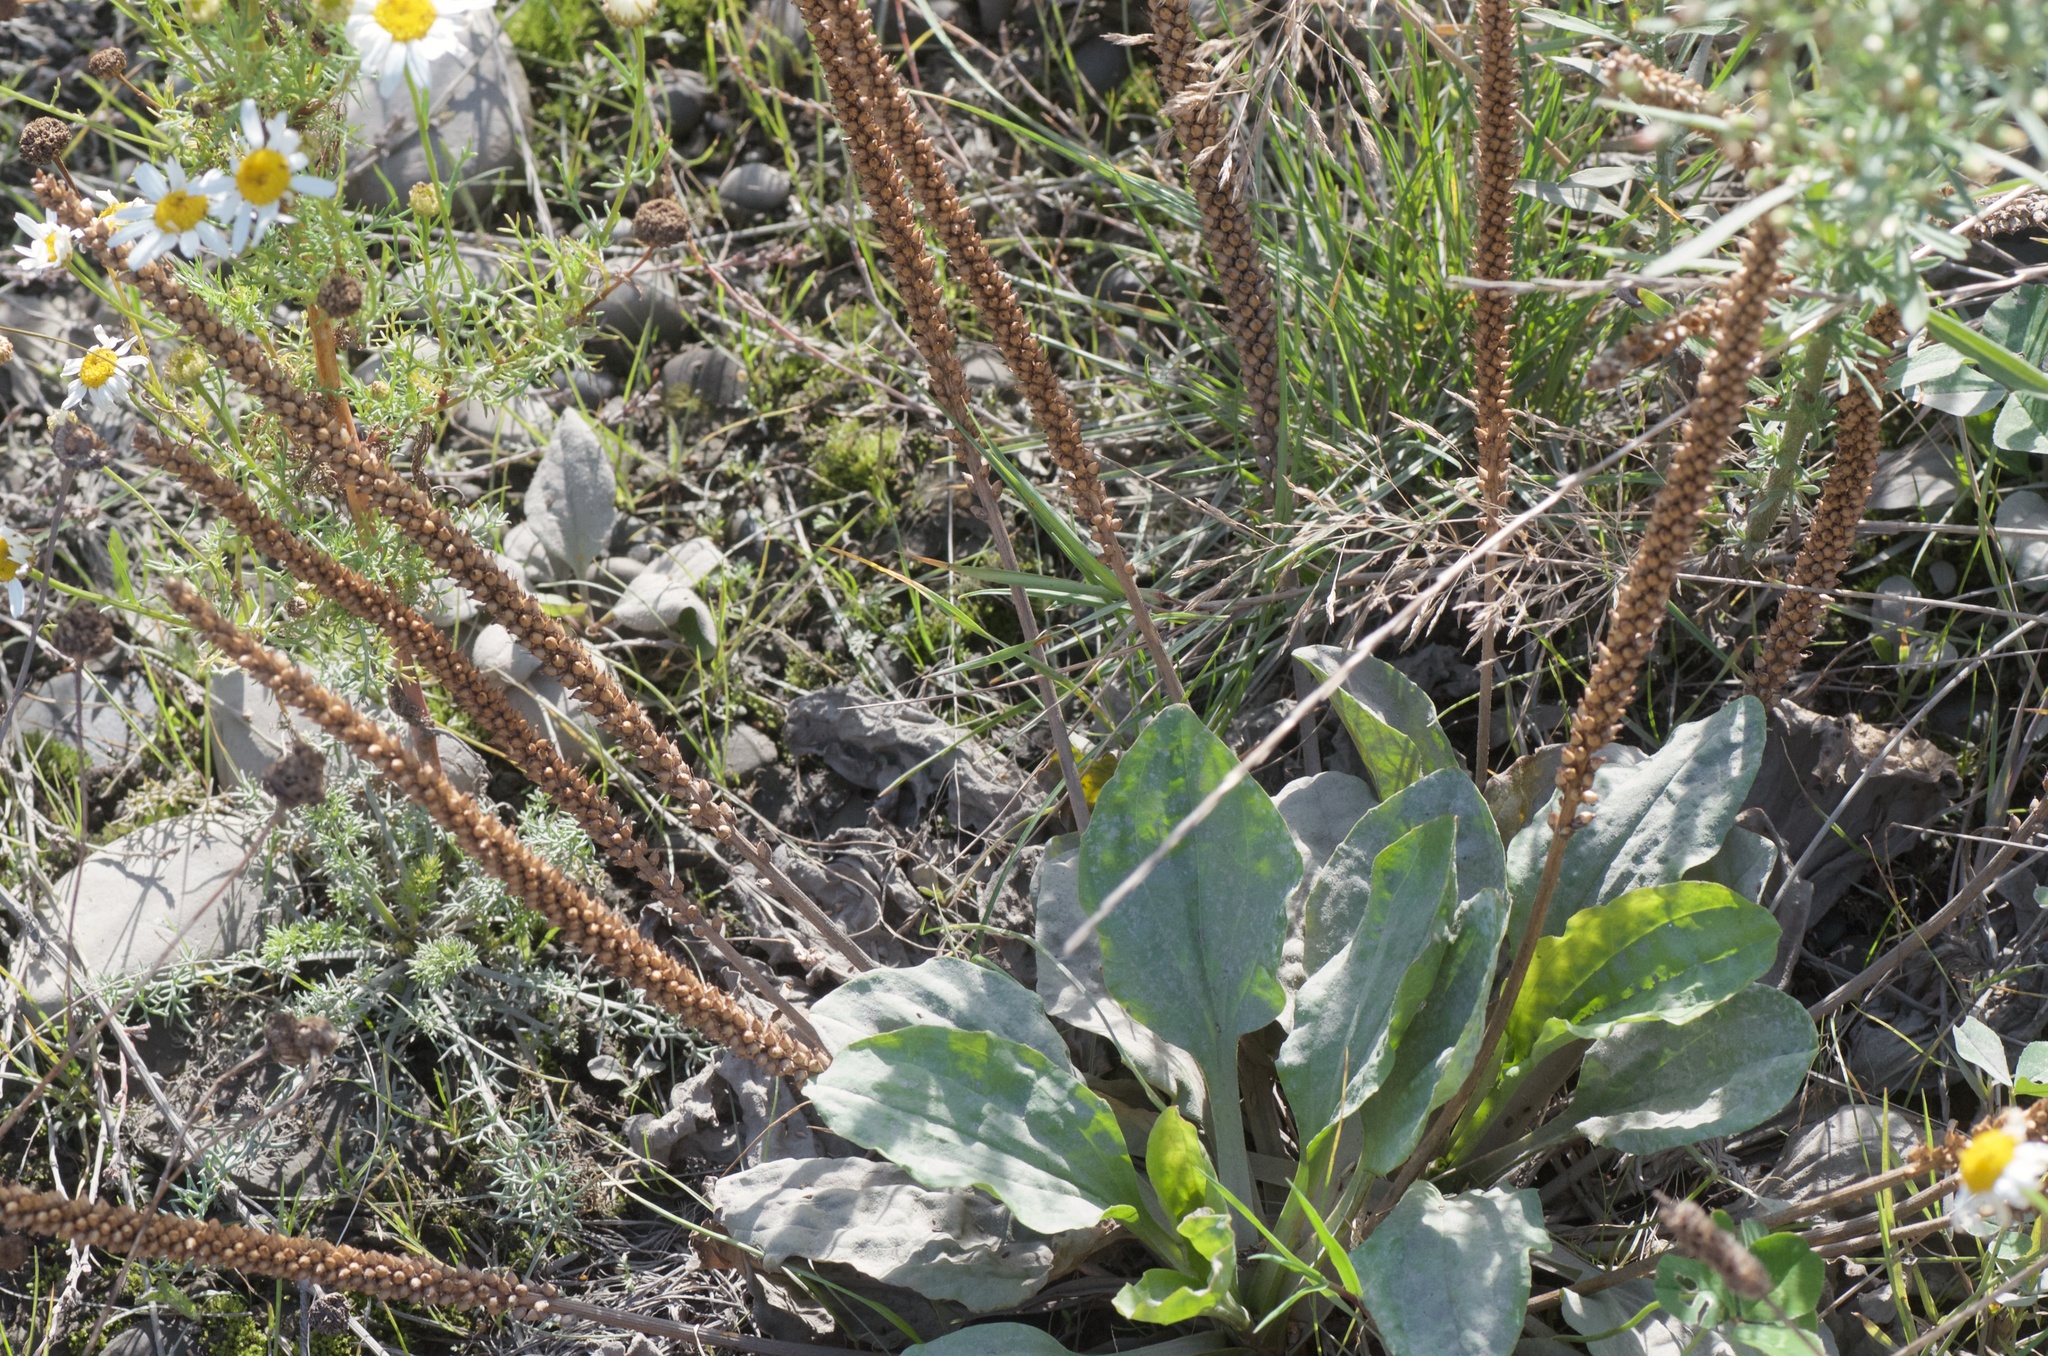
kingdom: Plantae
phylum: Tracheophyta
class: Magnoliopsida
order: Lamiales
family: Plantaginaceae
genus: Plantago
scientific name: Plantago major
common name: Common plantain
